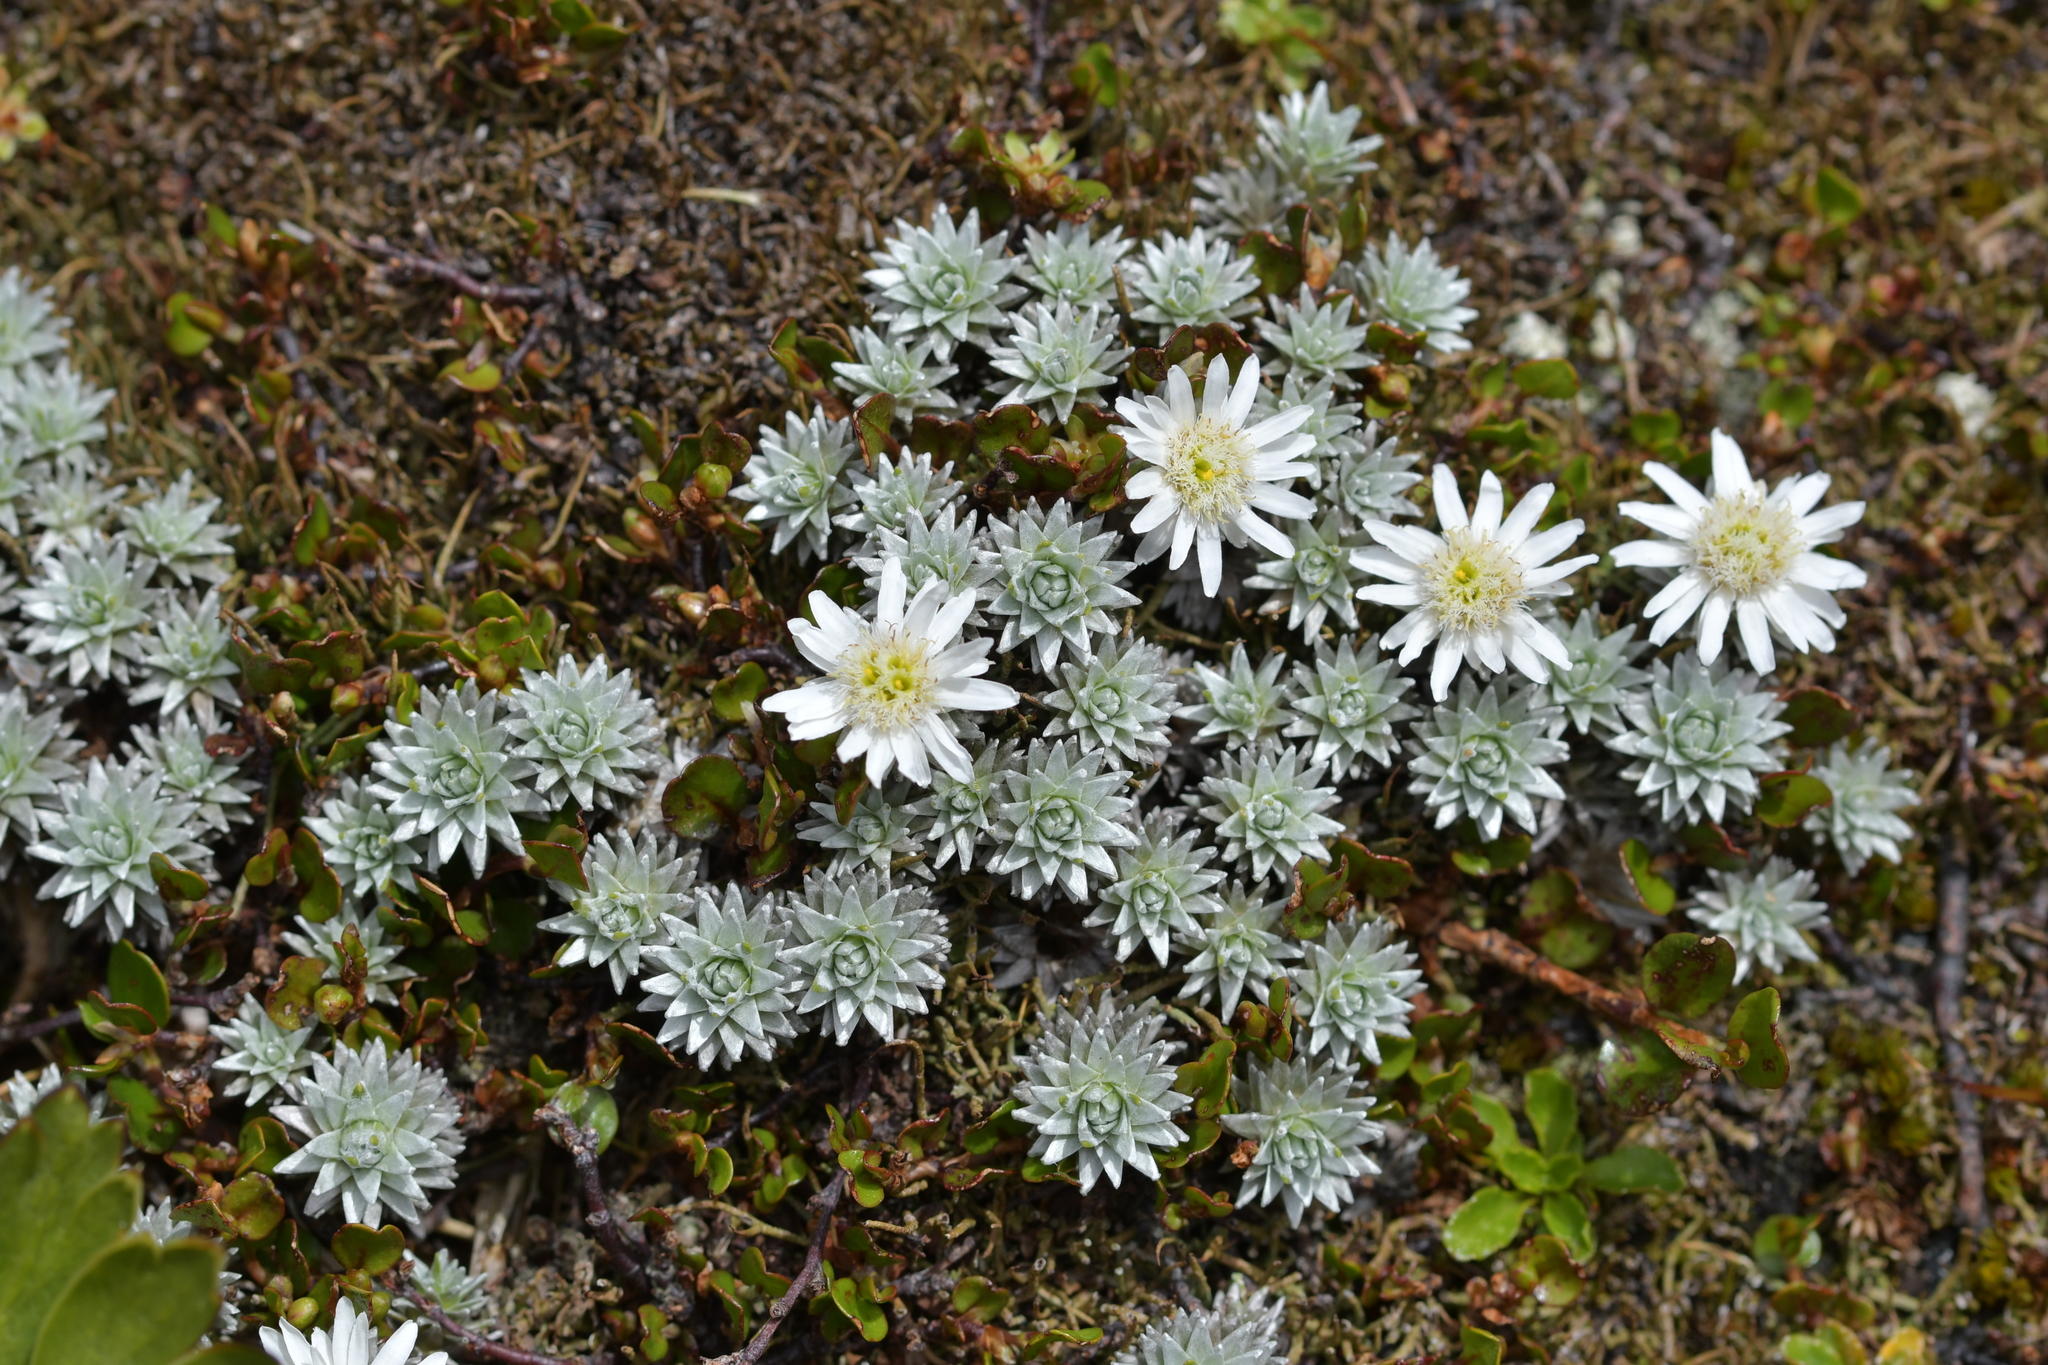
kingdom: Plantae
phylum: Tracheophyta
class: Magnoliopsida
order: Asterales
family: Asteraceae
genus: Raoulia
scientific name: Raoulia grandiflora
